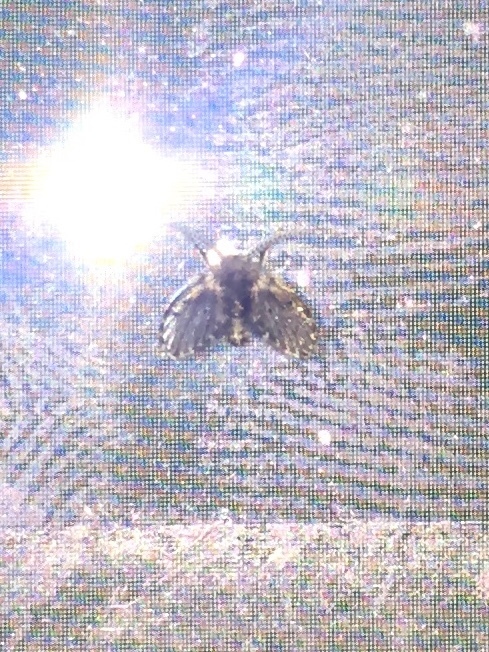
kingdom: Animalia
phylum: Arthropoda
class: Insecta
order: Diptera
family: Psychodidae
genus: Clogmia
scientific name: Clogmia albipunctatus
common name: White-spotted moth fly
